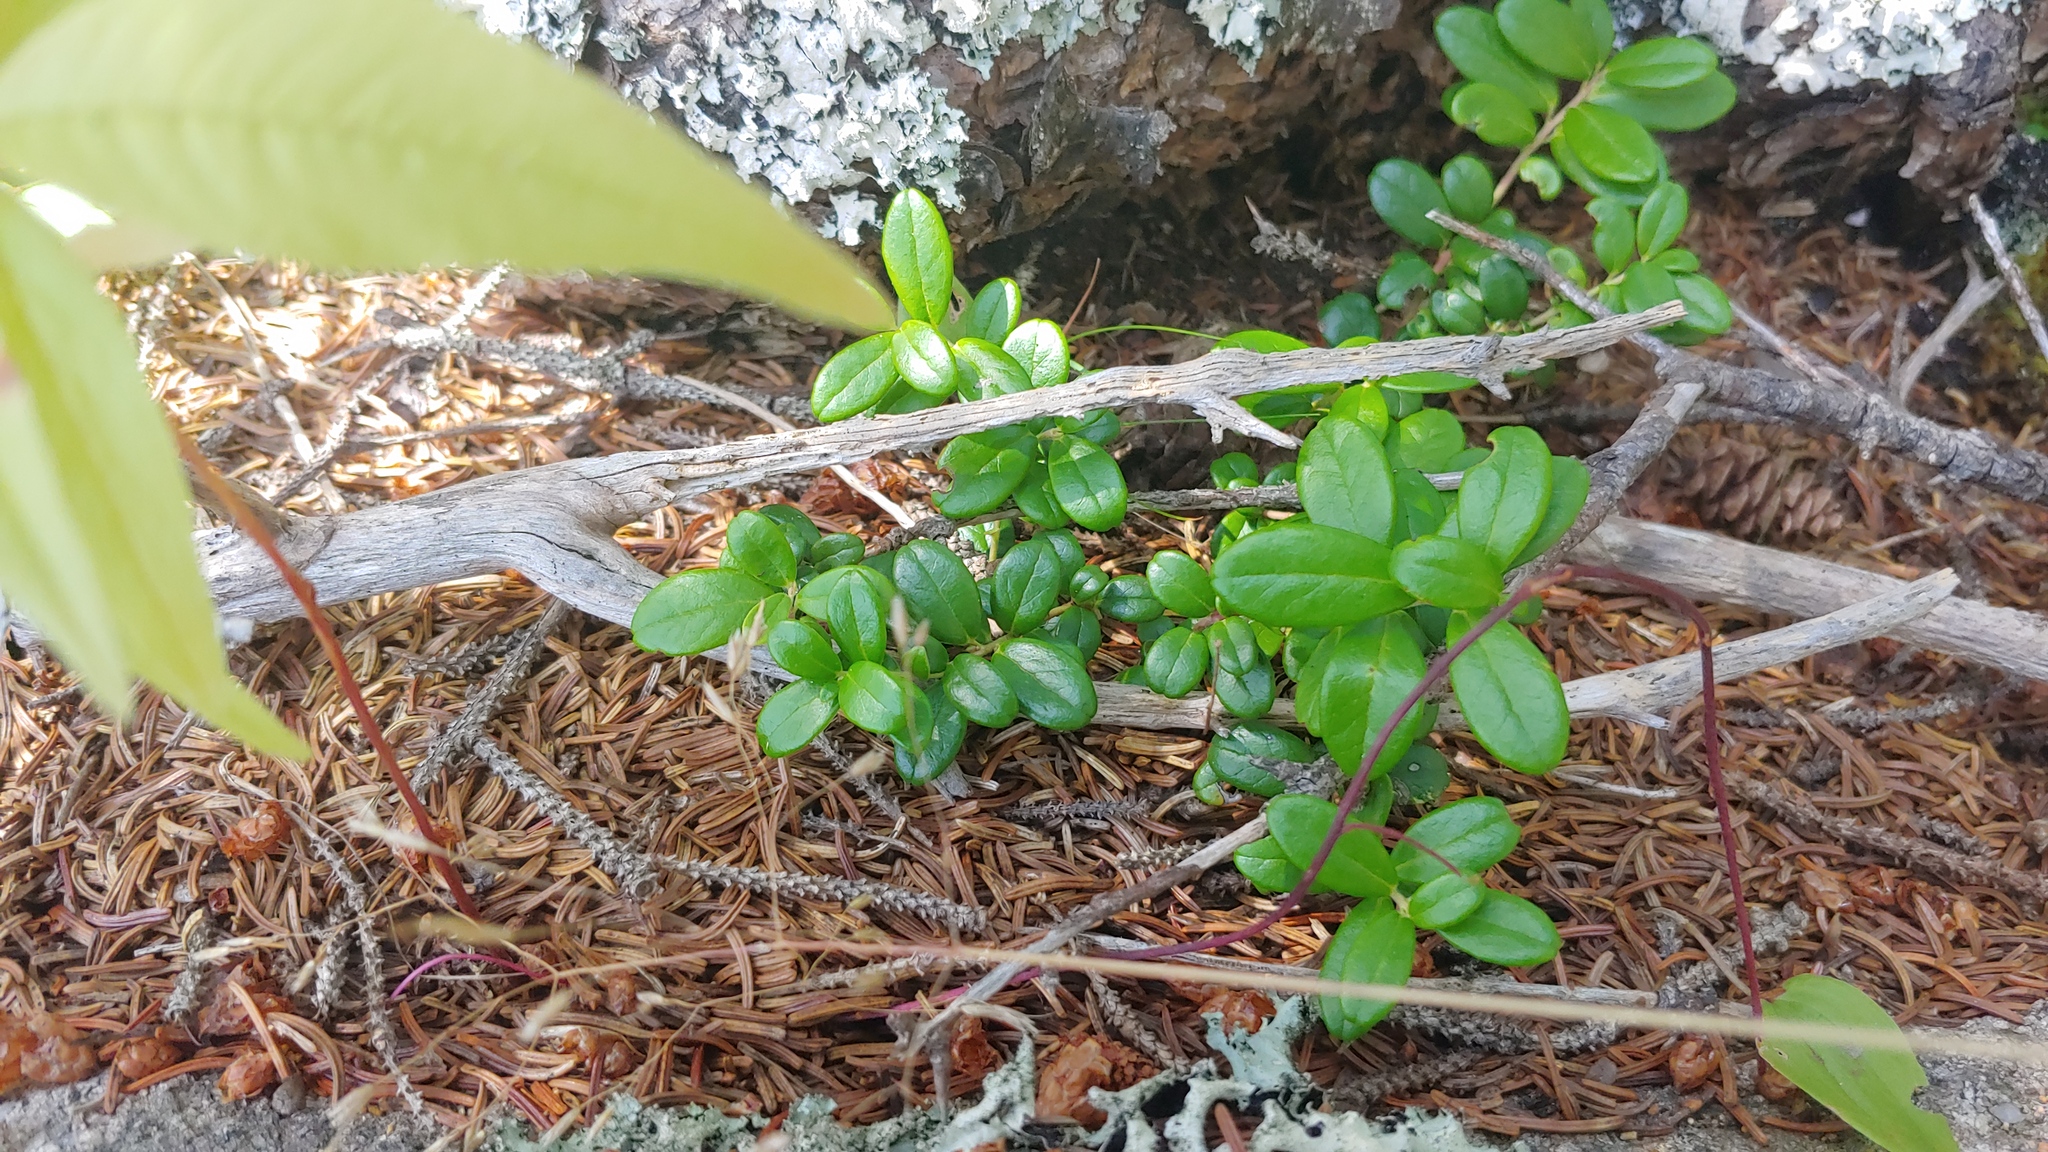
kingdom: Plantae
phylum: Tracheophyta
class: Magnoliopsida
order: Ericales
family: Ericaceae
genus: Vaccinium
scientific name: Vaccinium vitis-idaea
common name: Cowberry
